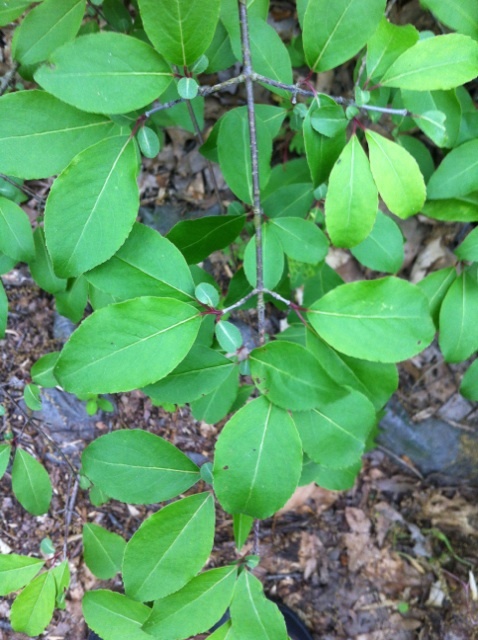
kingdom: Plantae
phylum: Tracheophyta
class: Magnoliopsida
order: Dipsacales
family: Viburnaceae
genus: Viburnum
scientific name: Viburnum prunifolium
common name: Black haw
